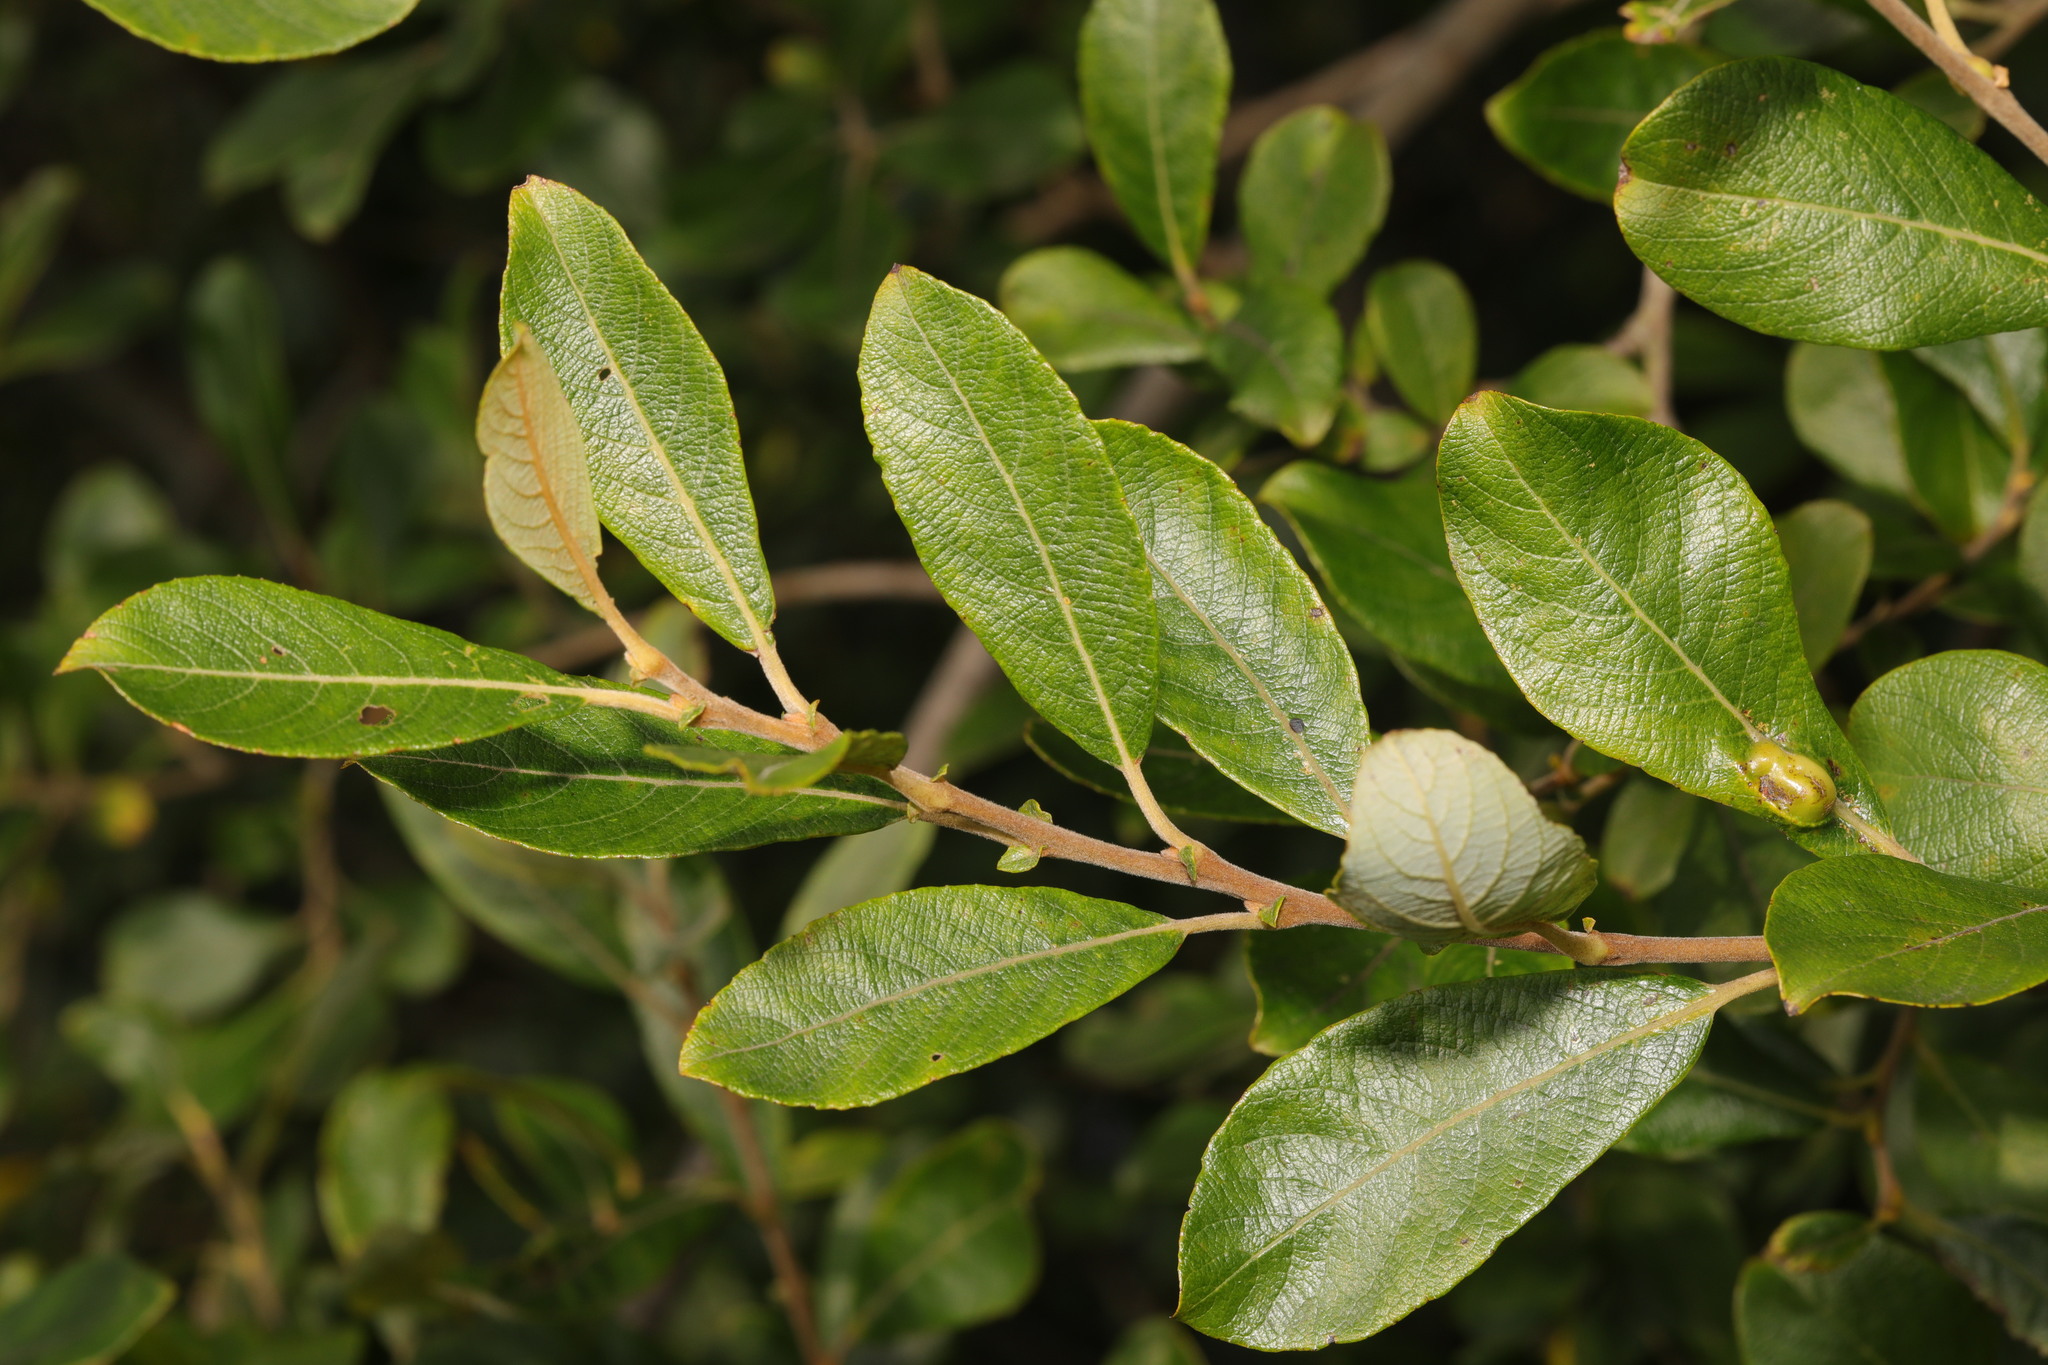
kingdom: Plantae
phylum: Tracheophyta
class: Magnoliopsida
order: Malpighiales
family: Salicaceae
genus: Salix
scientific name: Salix cinerea
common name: Common sallow
